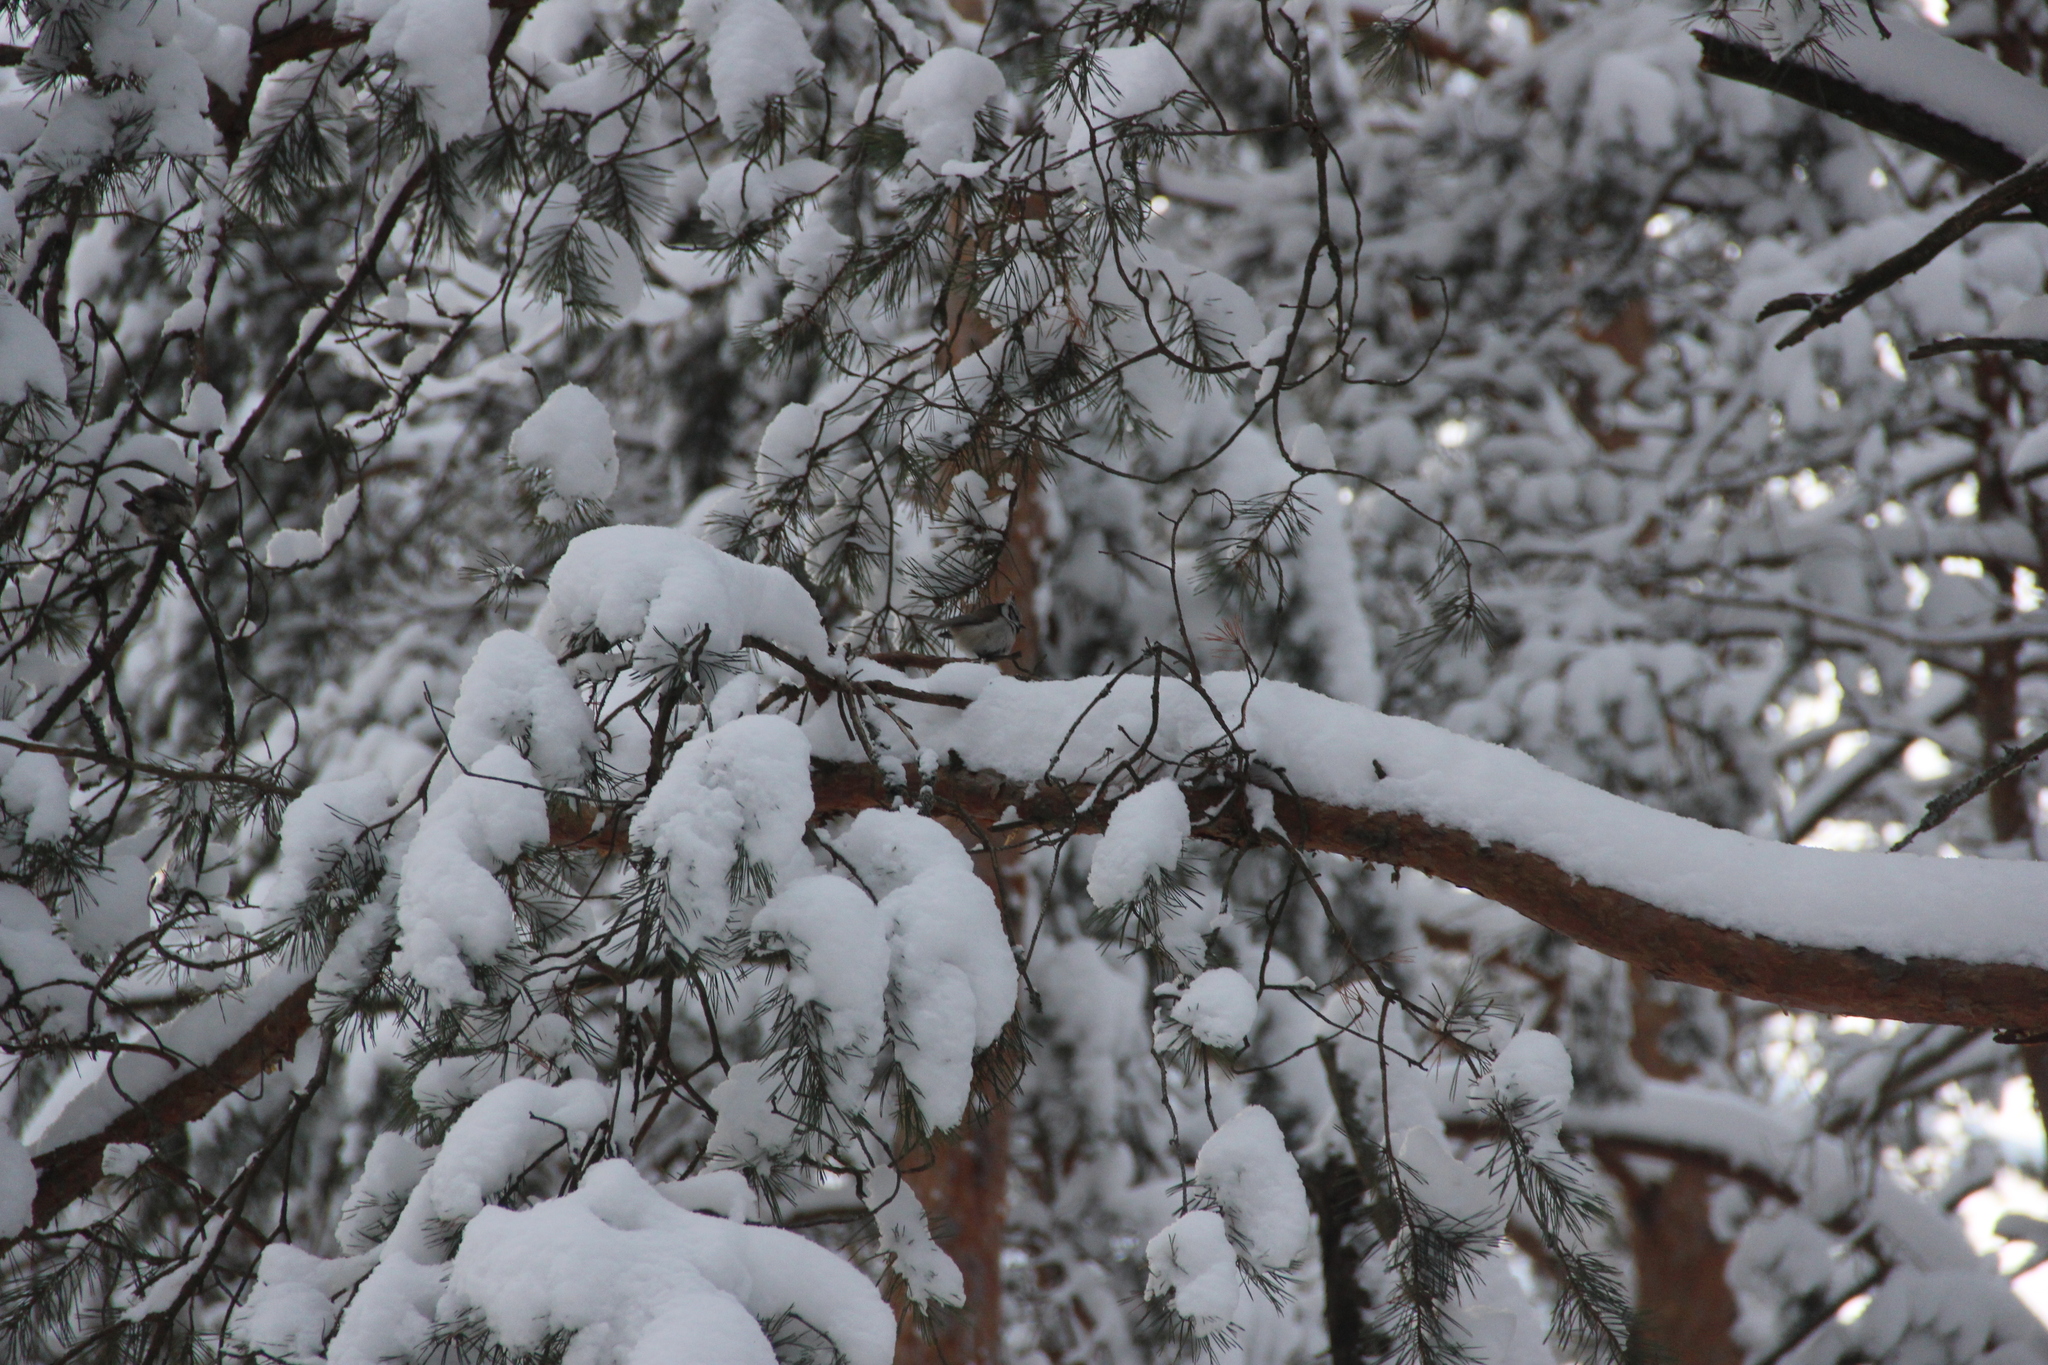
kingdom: Animalia
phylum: Chordata
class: Aves
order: Passeriformes
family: Paridae
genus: Lophophanes
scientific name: Lophophanes cristatus
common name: European crested tit
